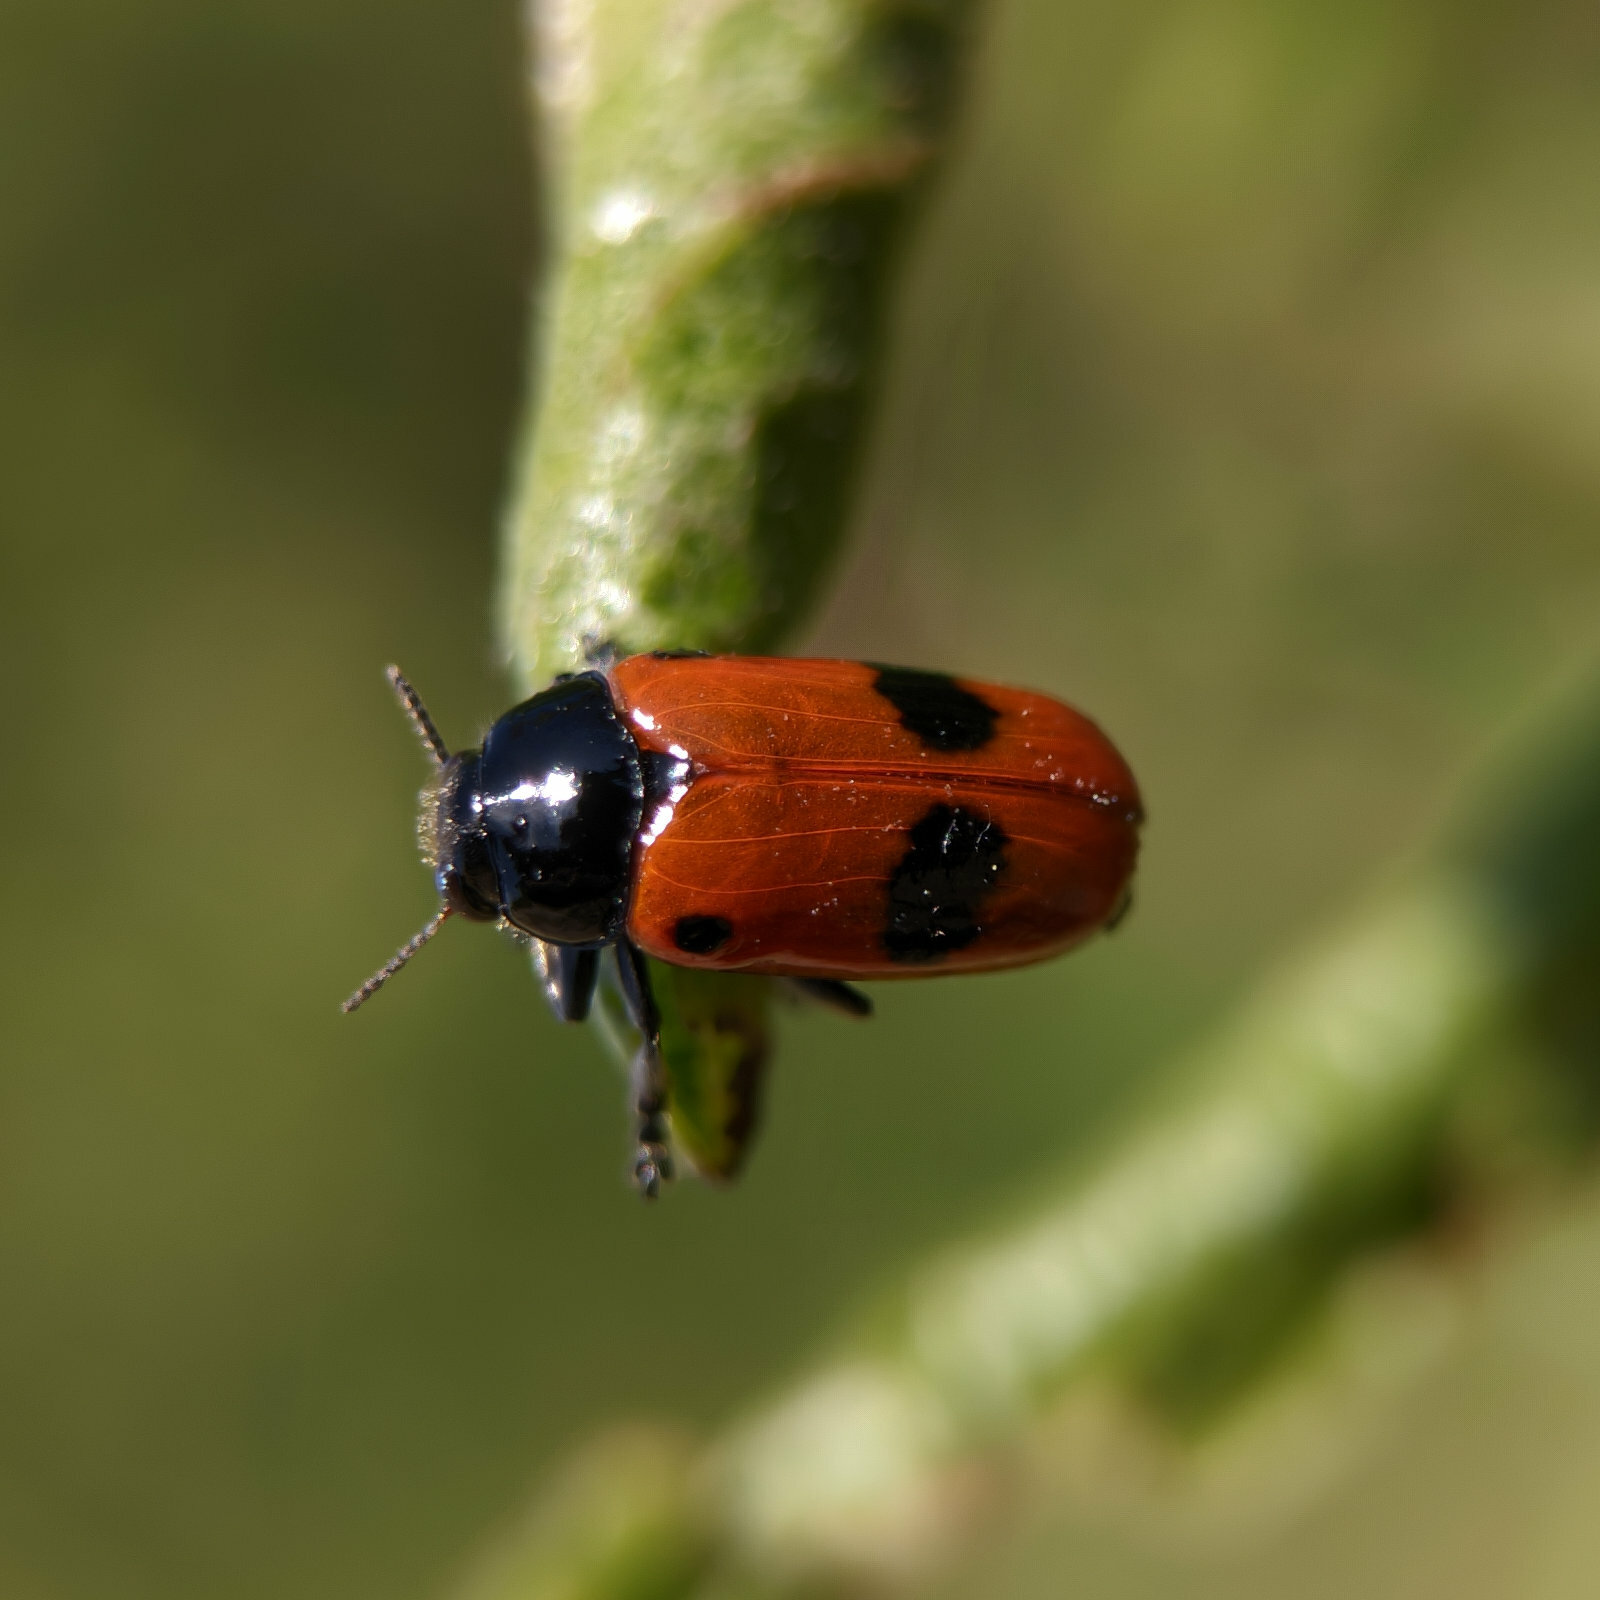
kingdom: Animalia
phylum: Arthropoda
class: Insecta
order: Coleoptera
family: Chrysomelidae
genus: Clytra
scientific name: Clytra laeviuscula
